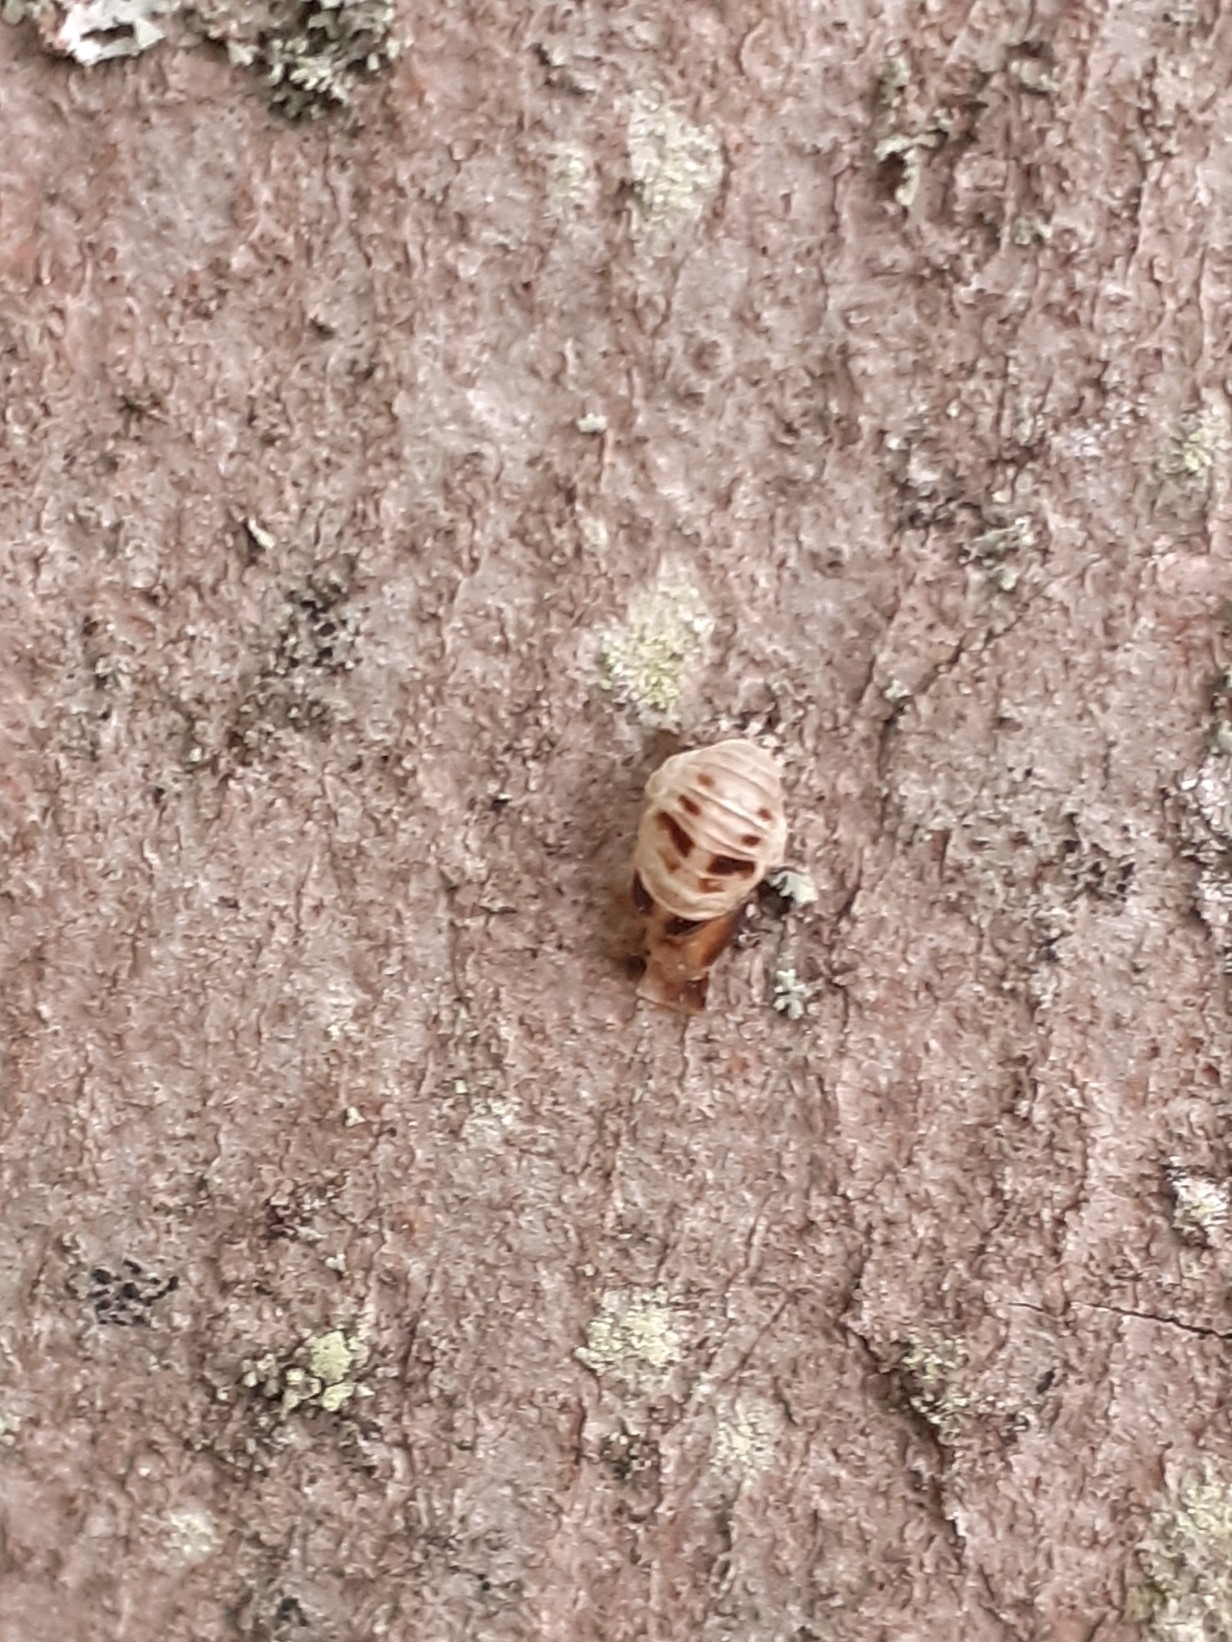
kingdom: Animalia
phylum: Arthropoda
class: Insecta
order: Coleoptera
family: Coccinellidae
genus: Harmonia
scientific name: Harmonia axyridis
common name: Harlequin ladybird
